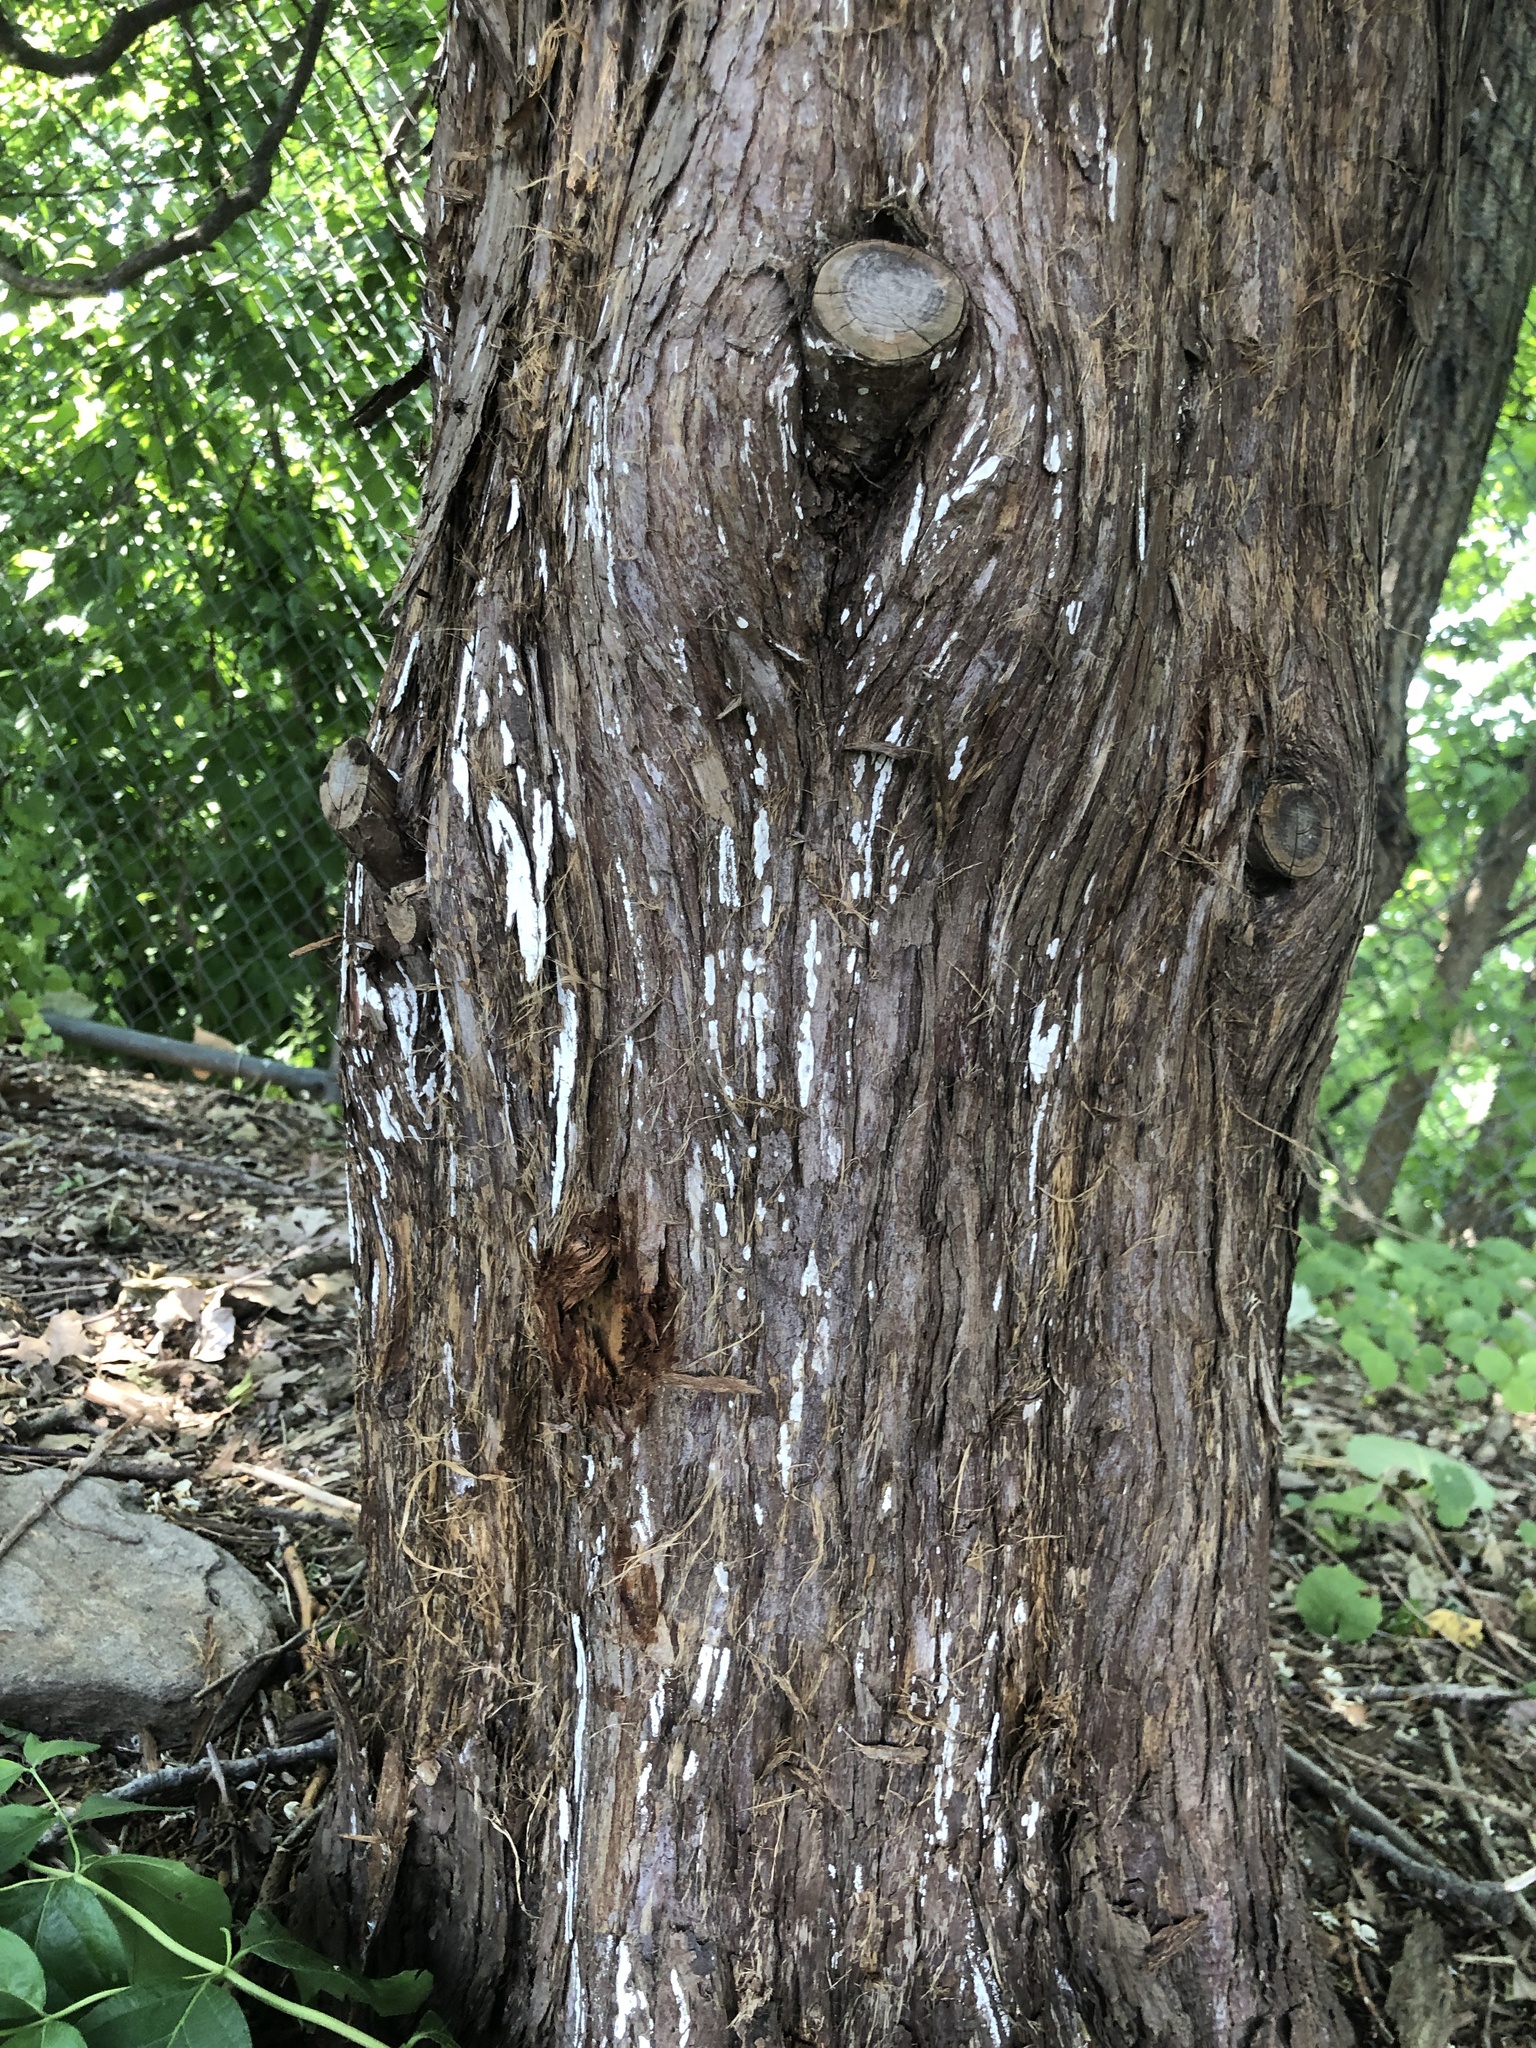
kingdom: Fungi
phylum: Basidiomycota
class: Agaricomycetes
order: Agaricales
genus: Dendrothele
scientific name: Dendrothele nivosa
